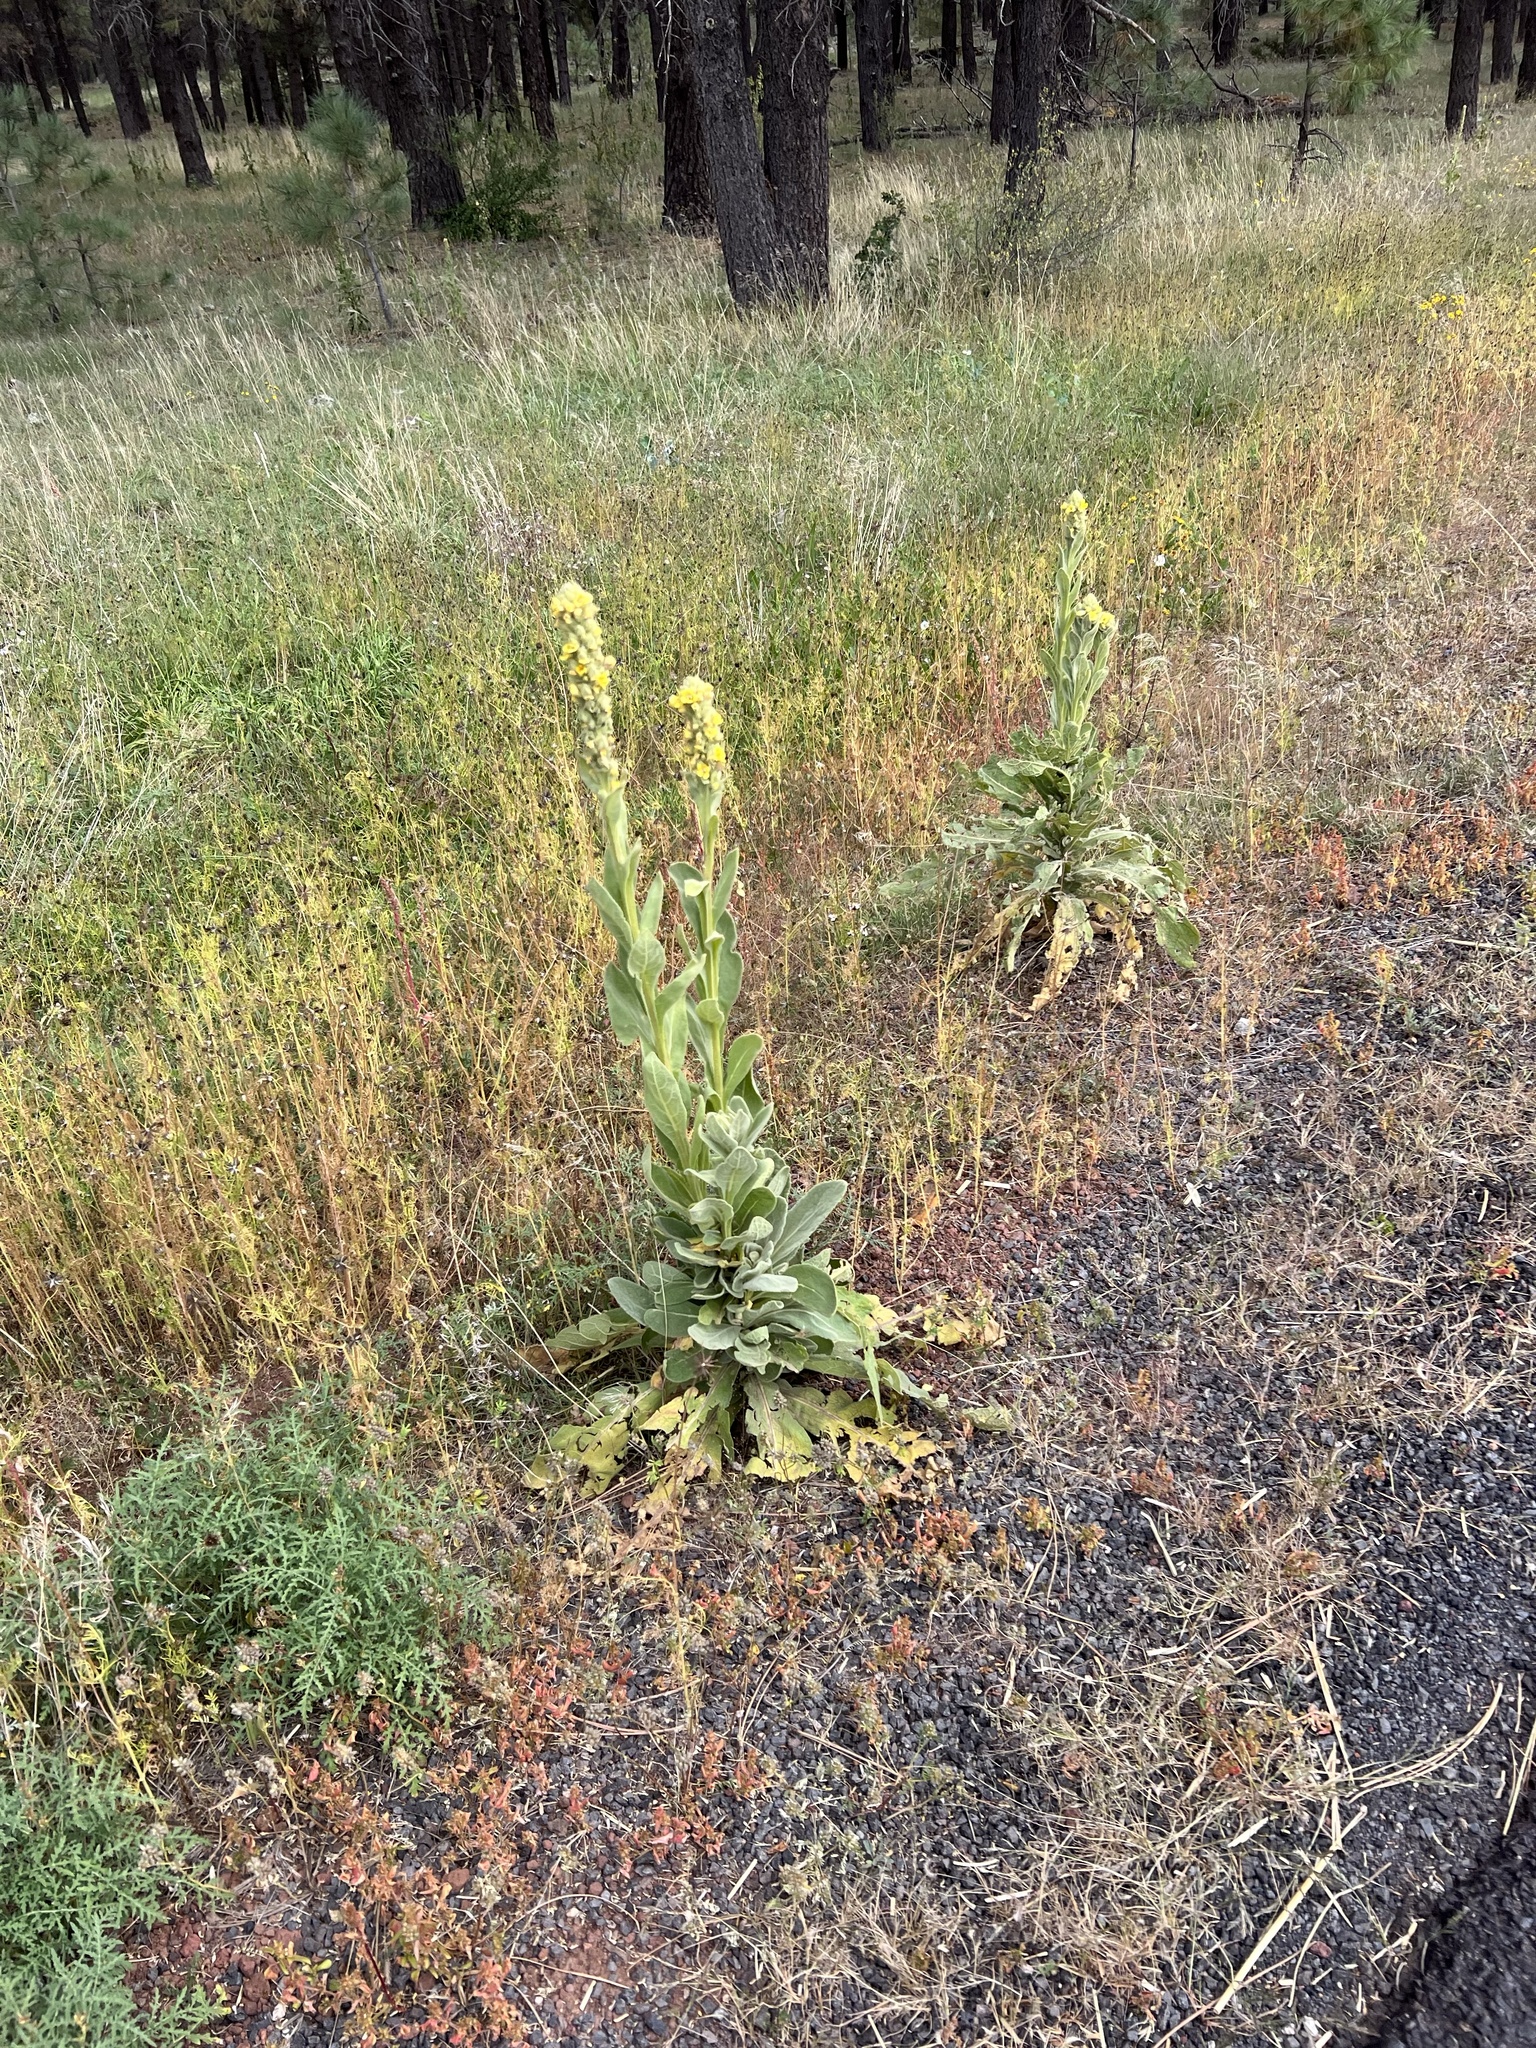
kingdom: Plantae
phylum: Tracheophyta
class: Magnoliopsida
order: Lamiales
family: Scrophulariaceae
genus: Verbascum
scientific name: Verbascum thapsus
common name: Common mullein
